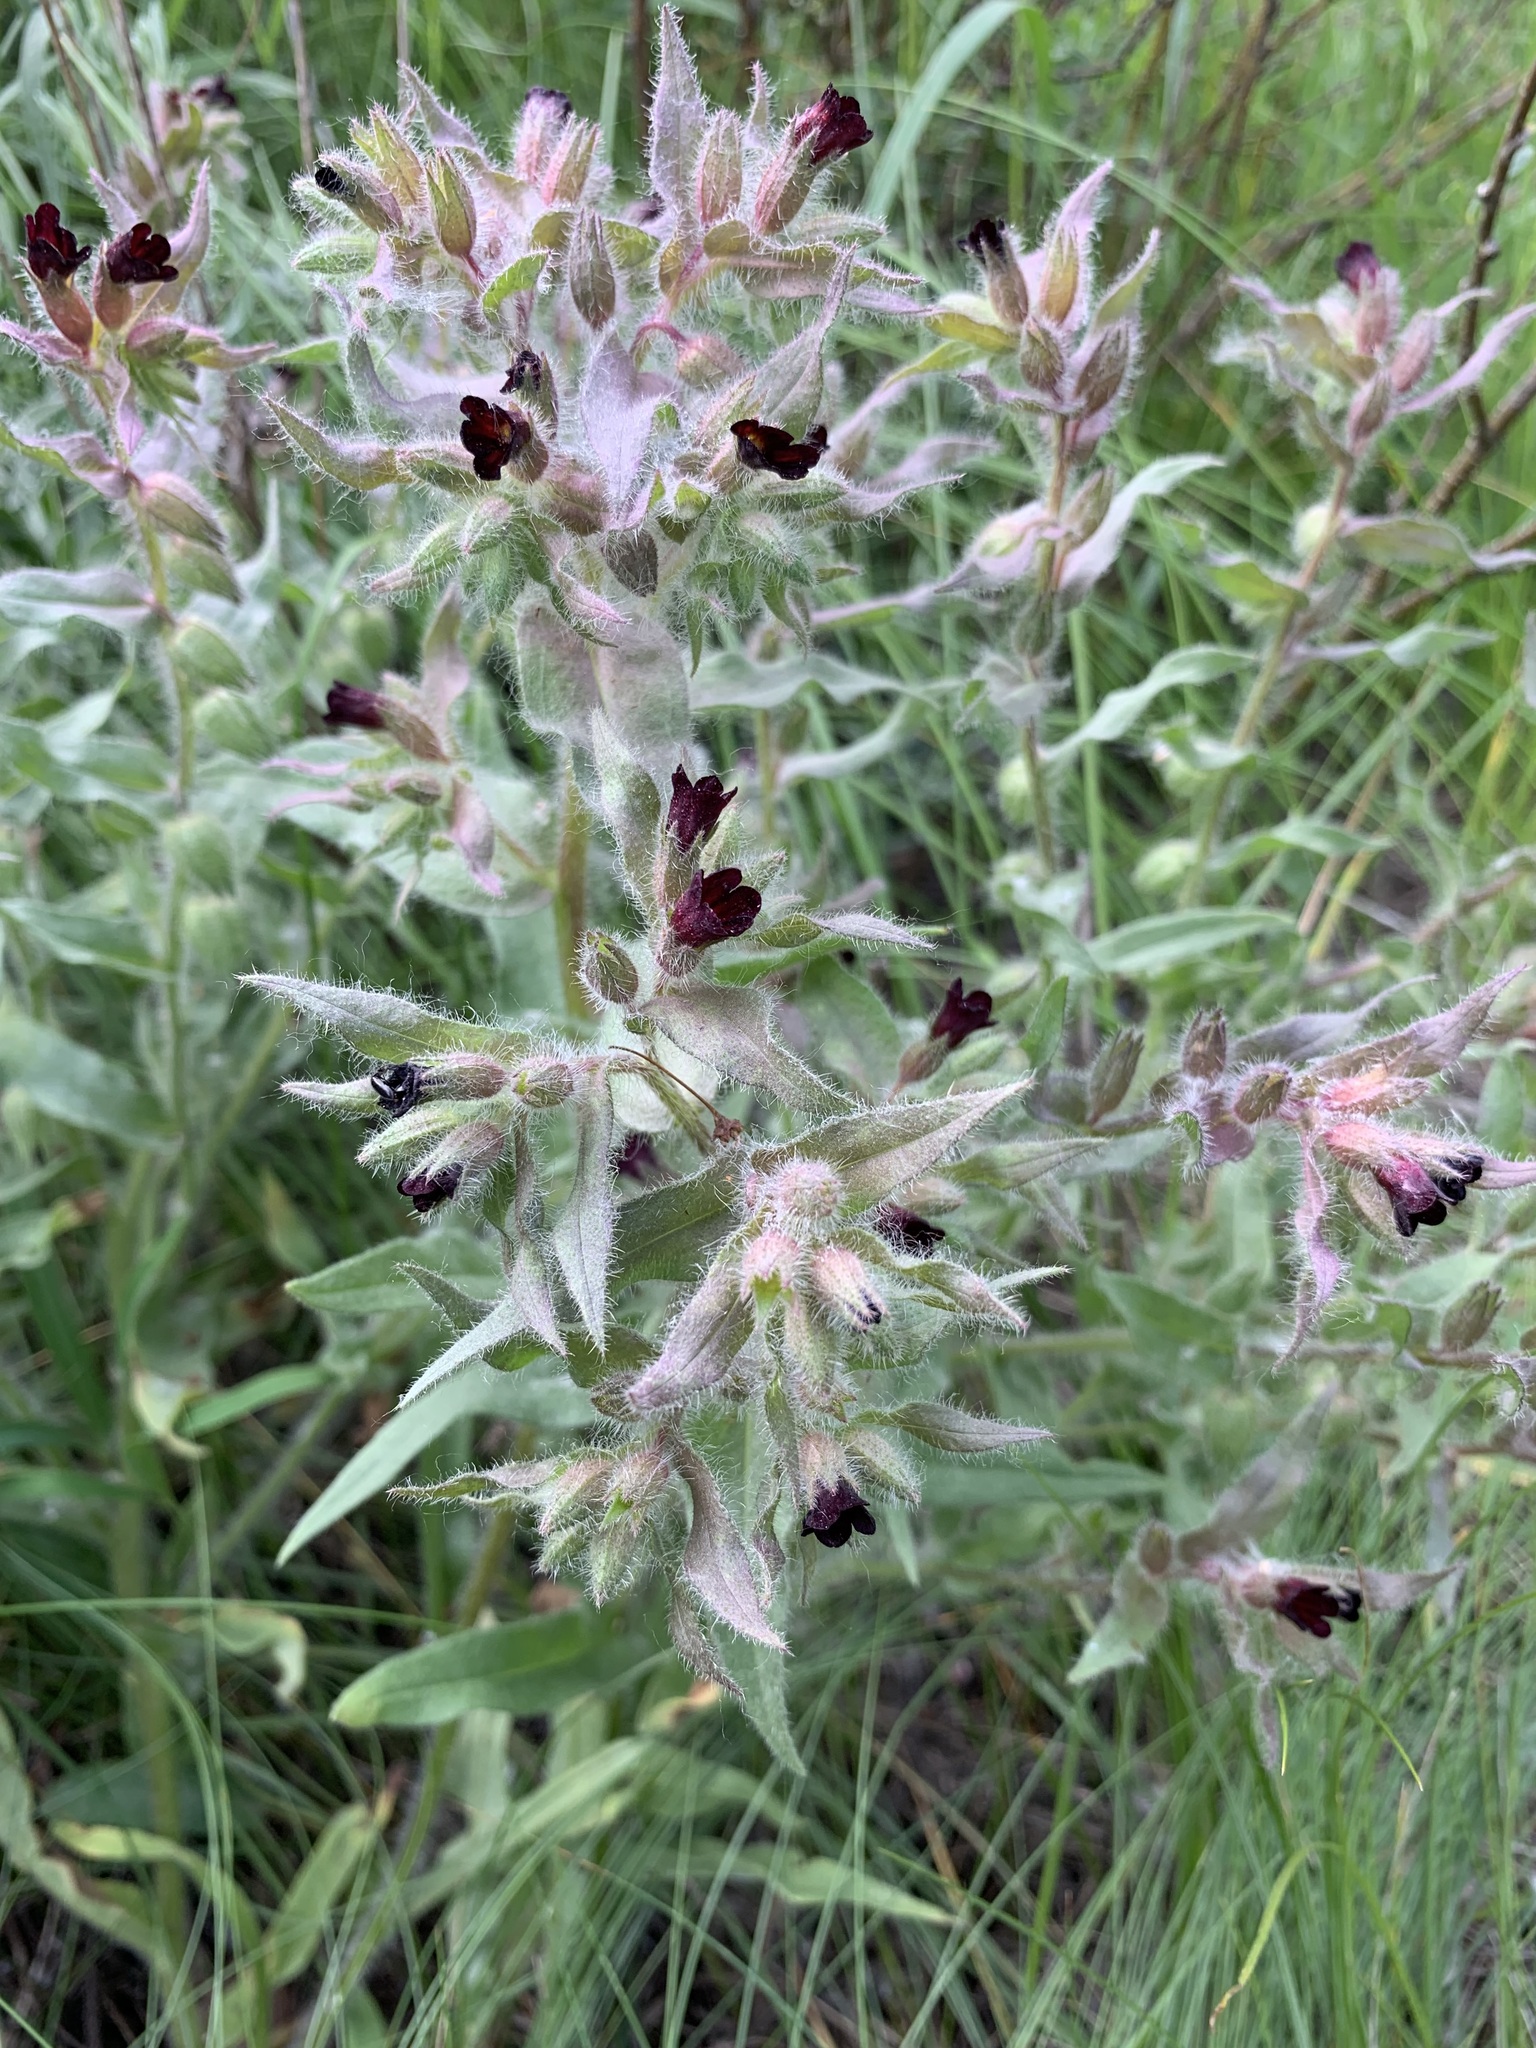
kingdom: Plantae
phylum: Tracheophyta
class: Magnoliopsida
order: Boraginales
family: Boraginaceae
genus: Nonea
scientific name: Nonea pulla
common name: Brown nonea
